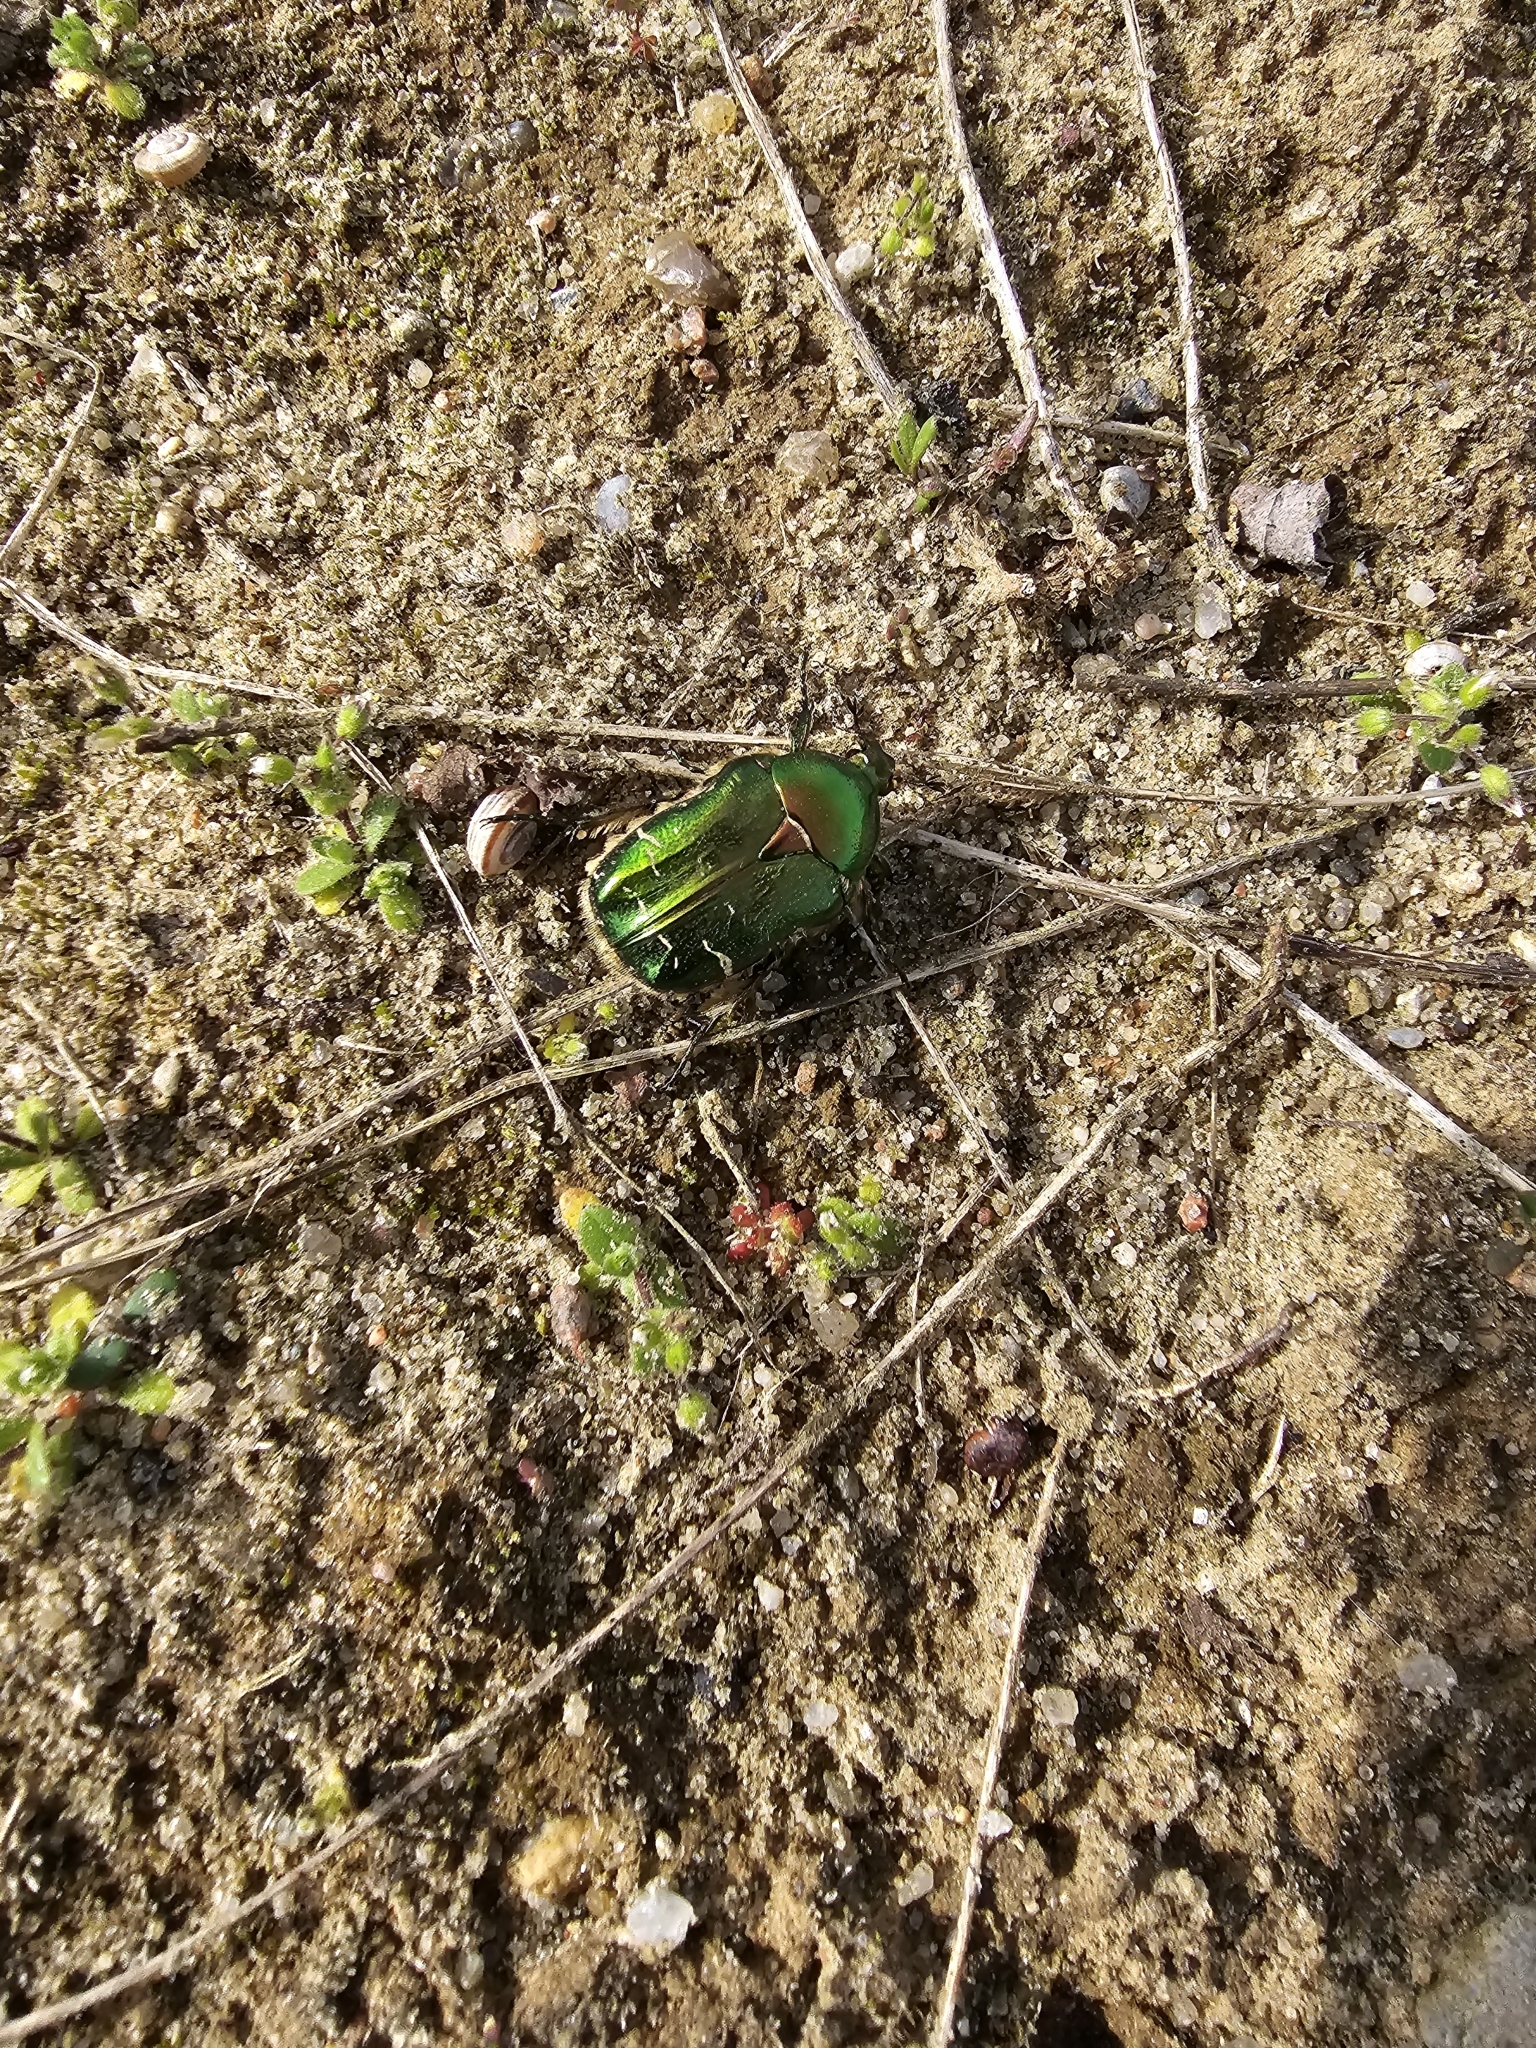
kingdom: Animalia
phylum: Arthropoda
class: Insecta
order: Coleoptera
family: Scarabaeidae
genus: Cetonia
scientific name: Cetonia aurata
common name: Rose chafer
